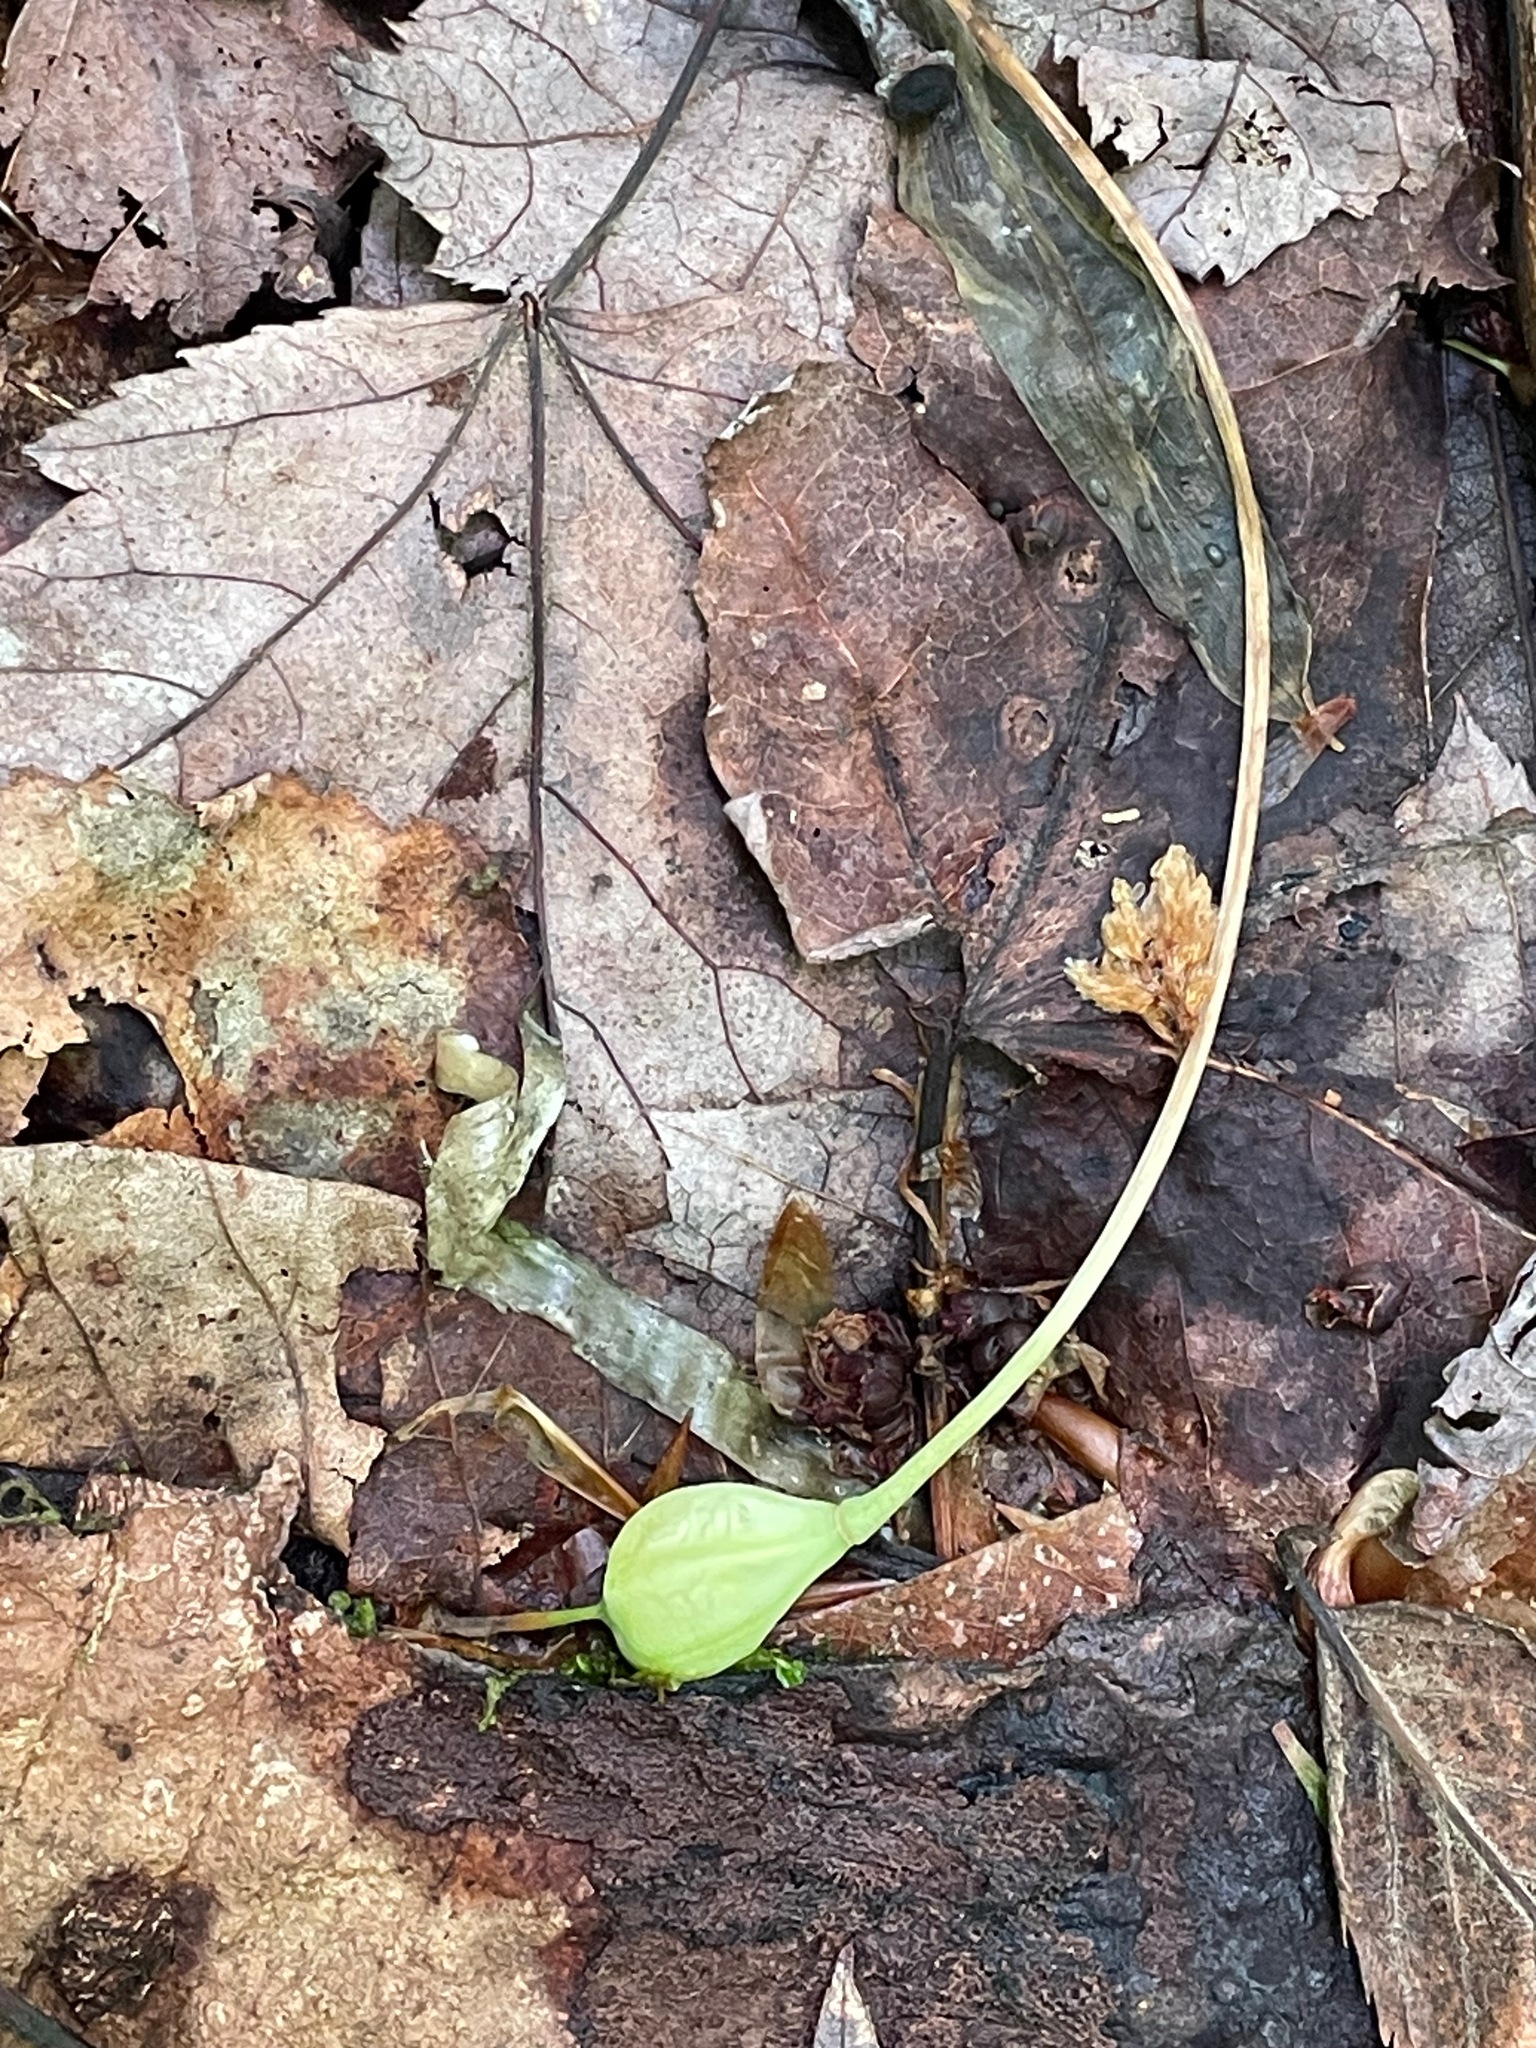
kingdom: Plantae
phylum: Tracheophyta
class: Liliopsida
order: Liliales
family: Liliaceae
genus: Erythronium
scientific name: Erythronium americanum
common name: Yellow adder's-tongue
